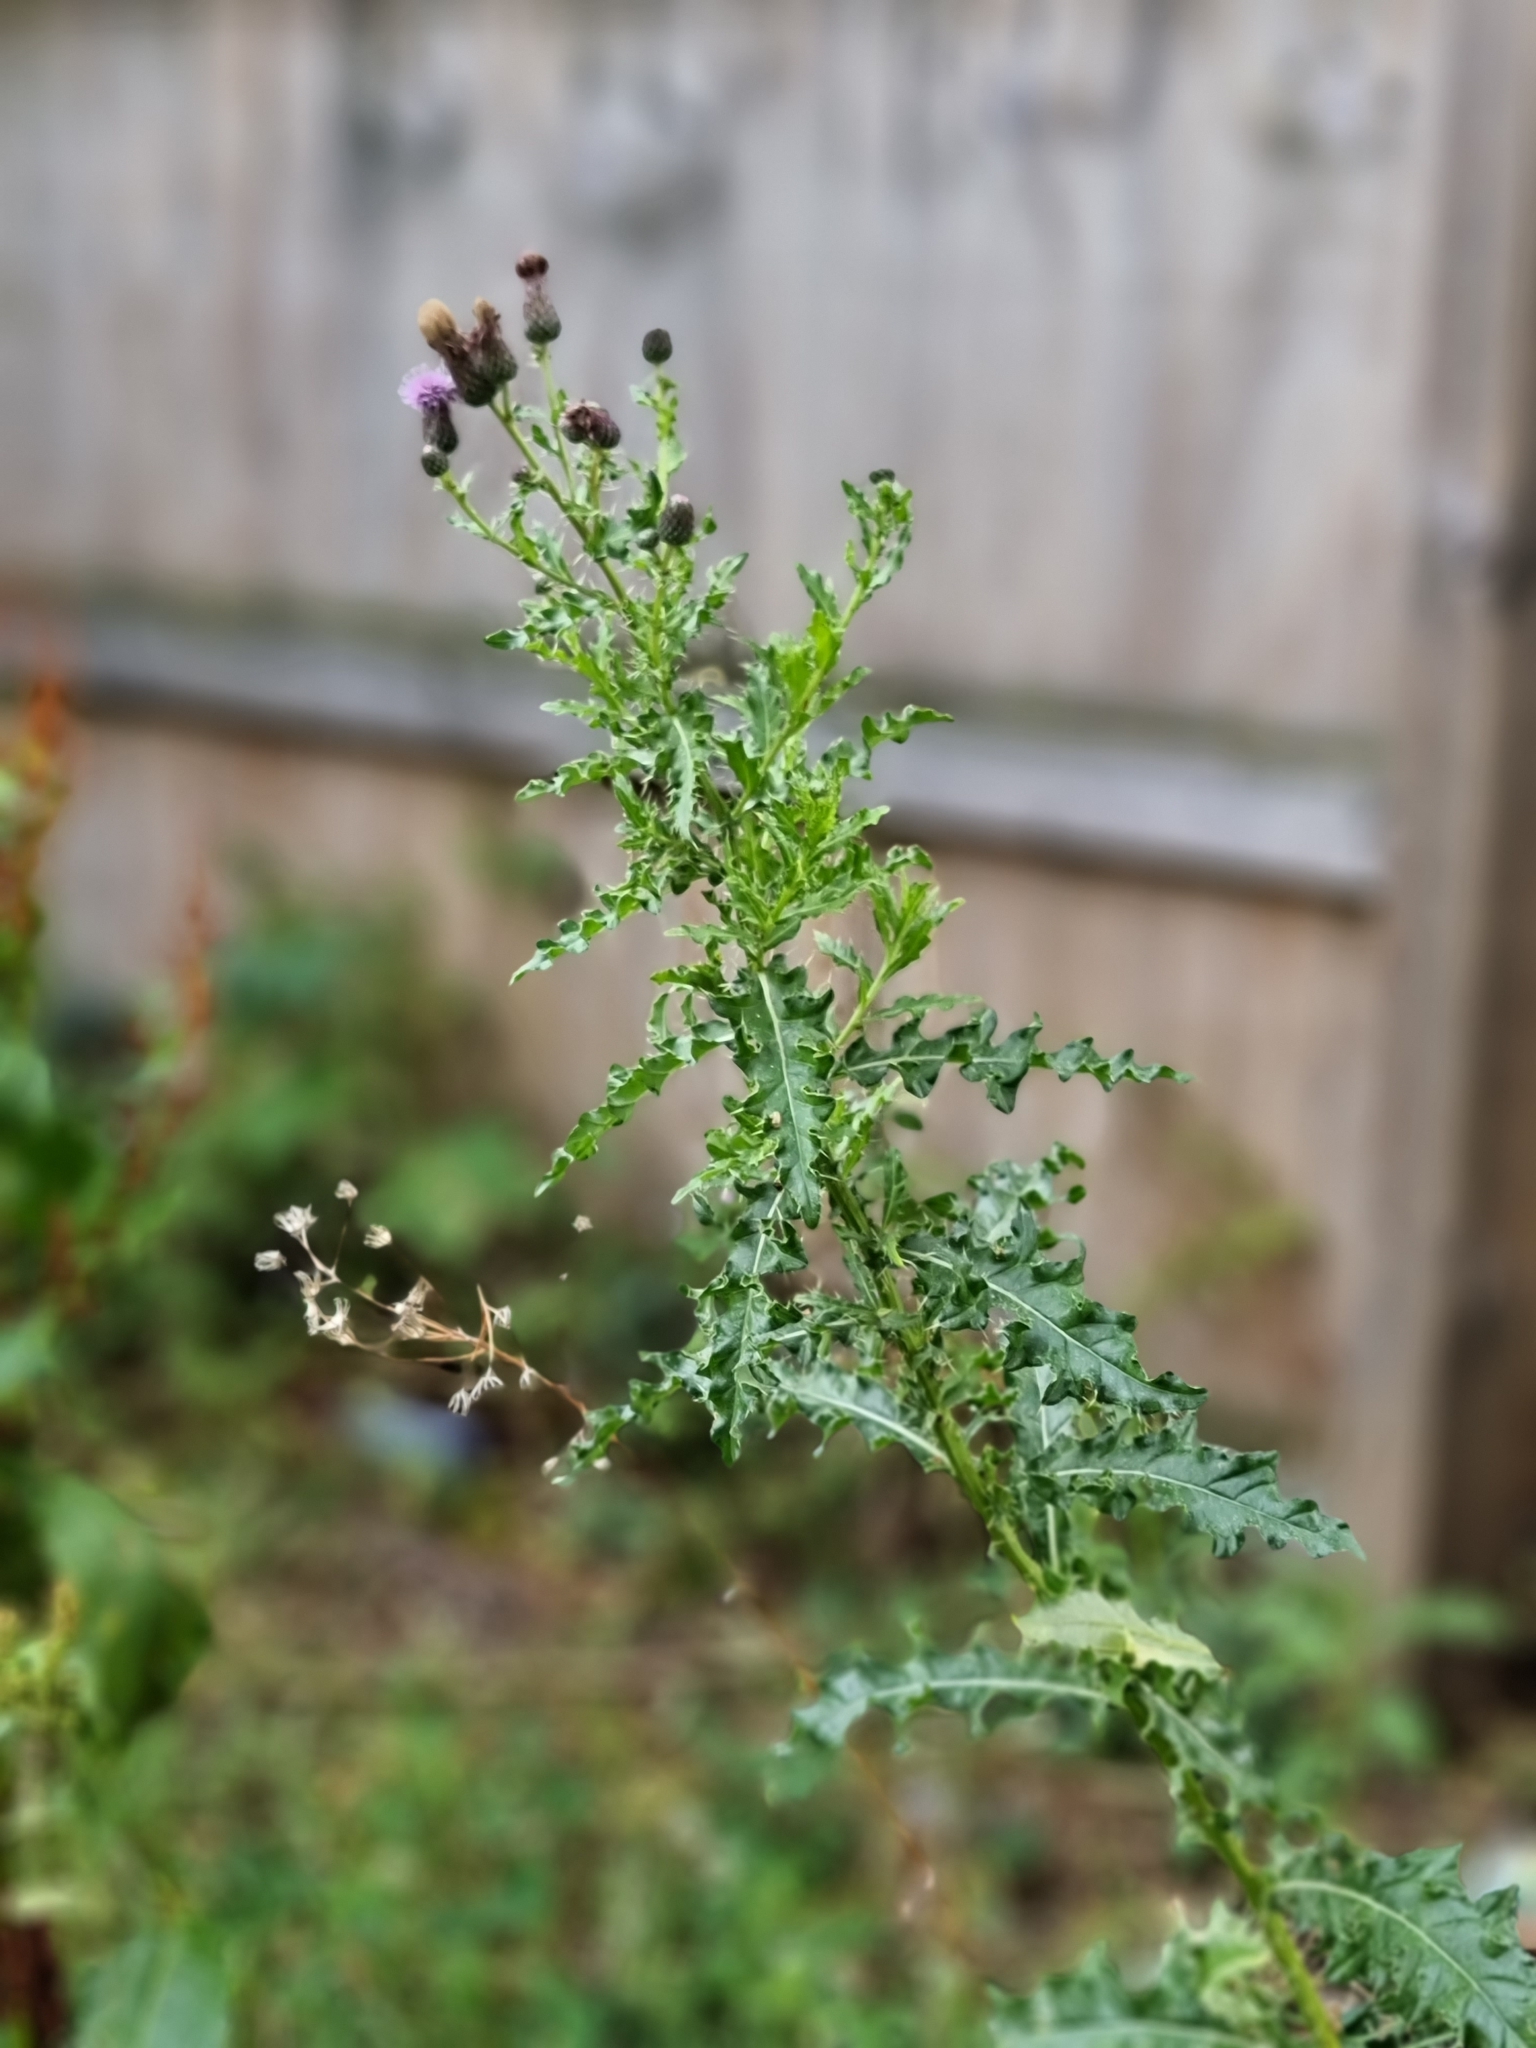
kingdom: Plantae
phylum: Tracheophyta
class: Magnoliopsida
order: Asterales
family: Asteraceae
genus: Cirsium
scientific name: Cirsium arvense
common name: Creeping thistle
